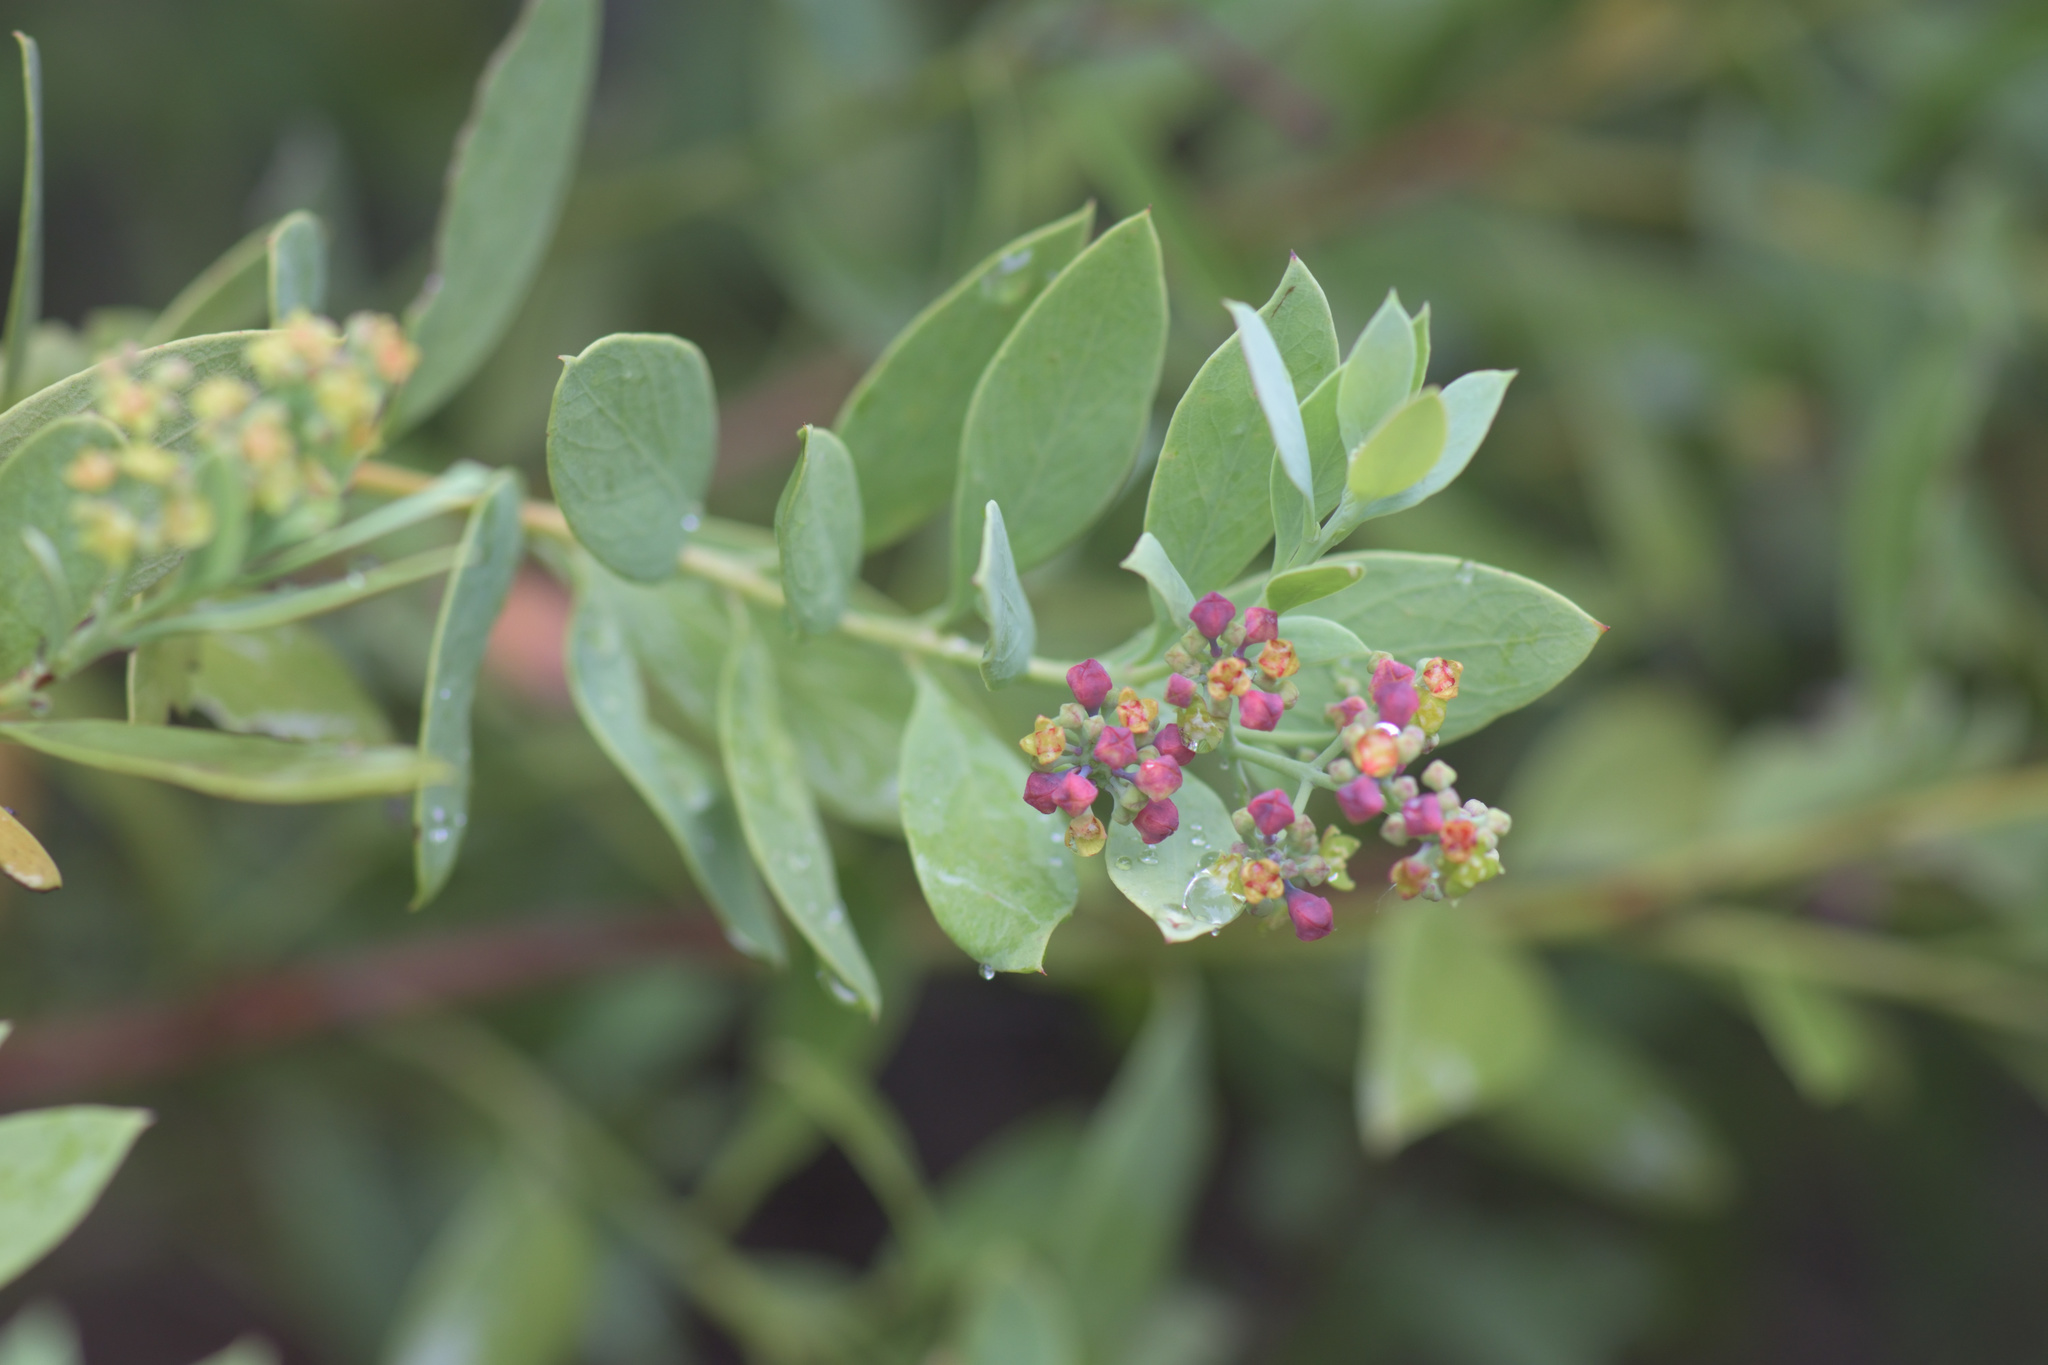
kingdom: Plantae
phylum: Tracheophyta
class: Magnoliopsida
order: Santalales
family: Santalaceae
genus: Osyris
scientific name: Osyris compressa
